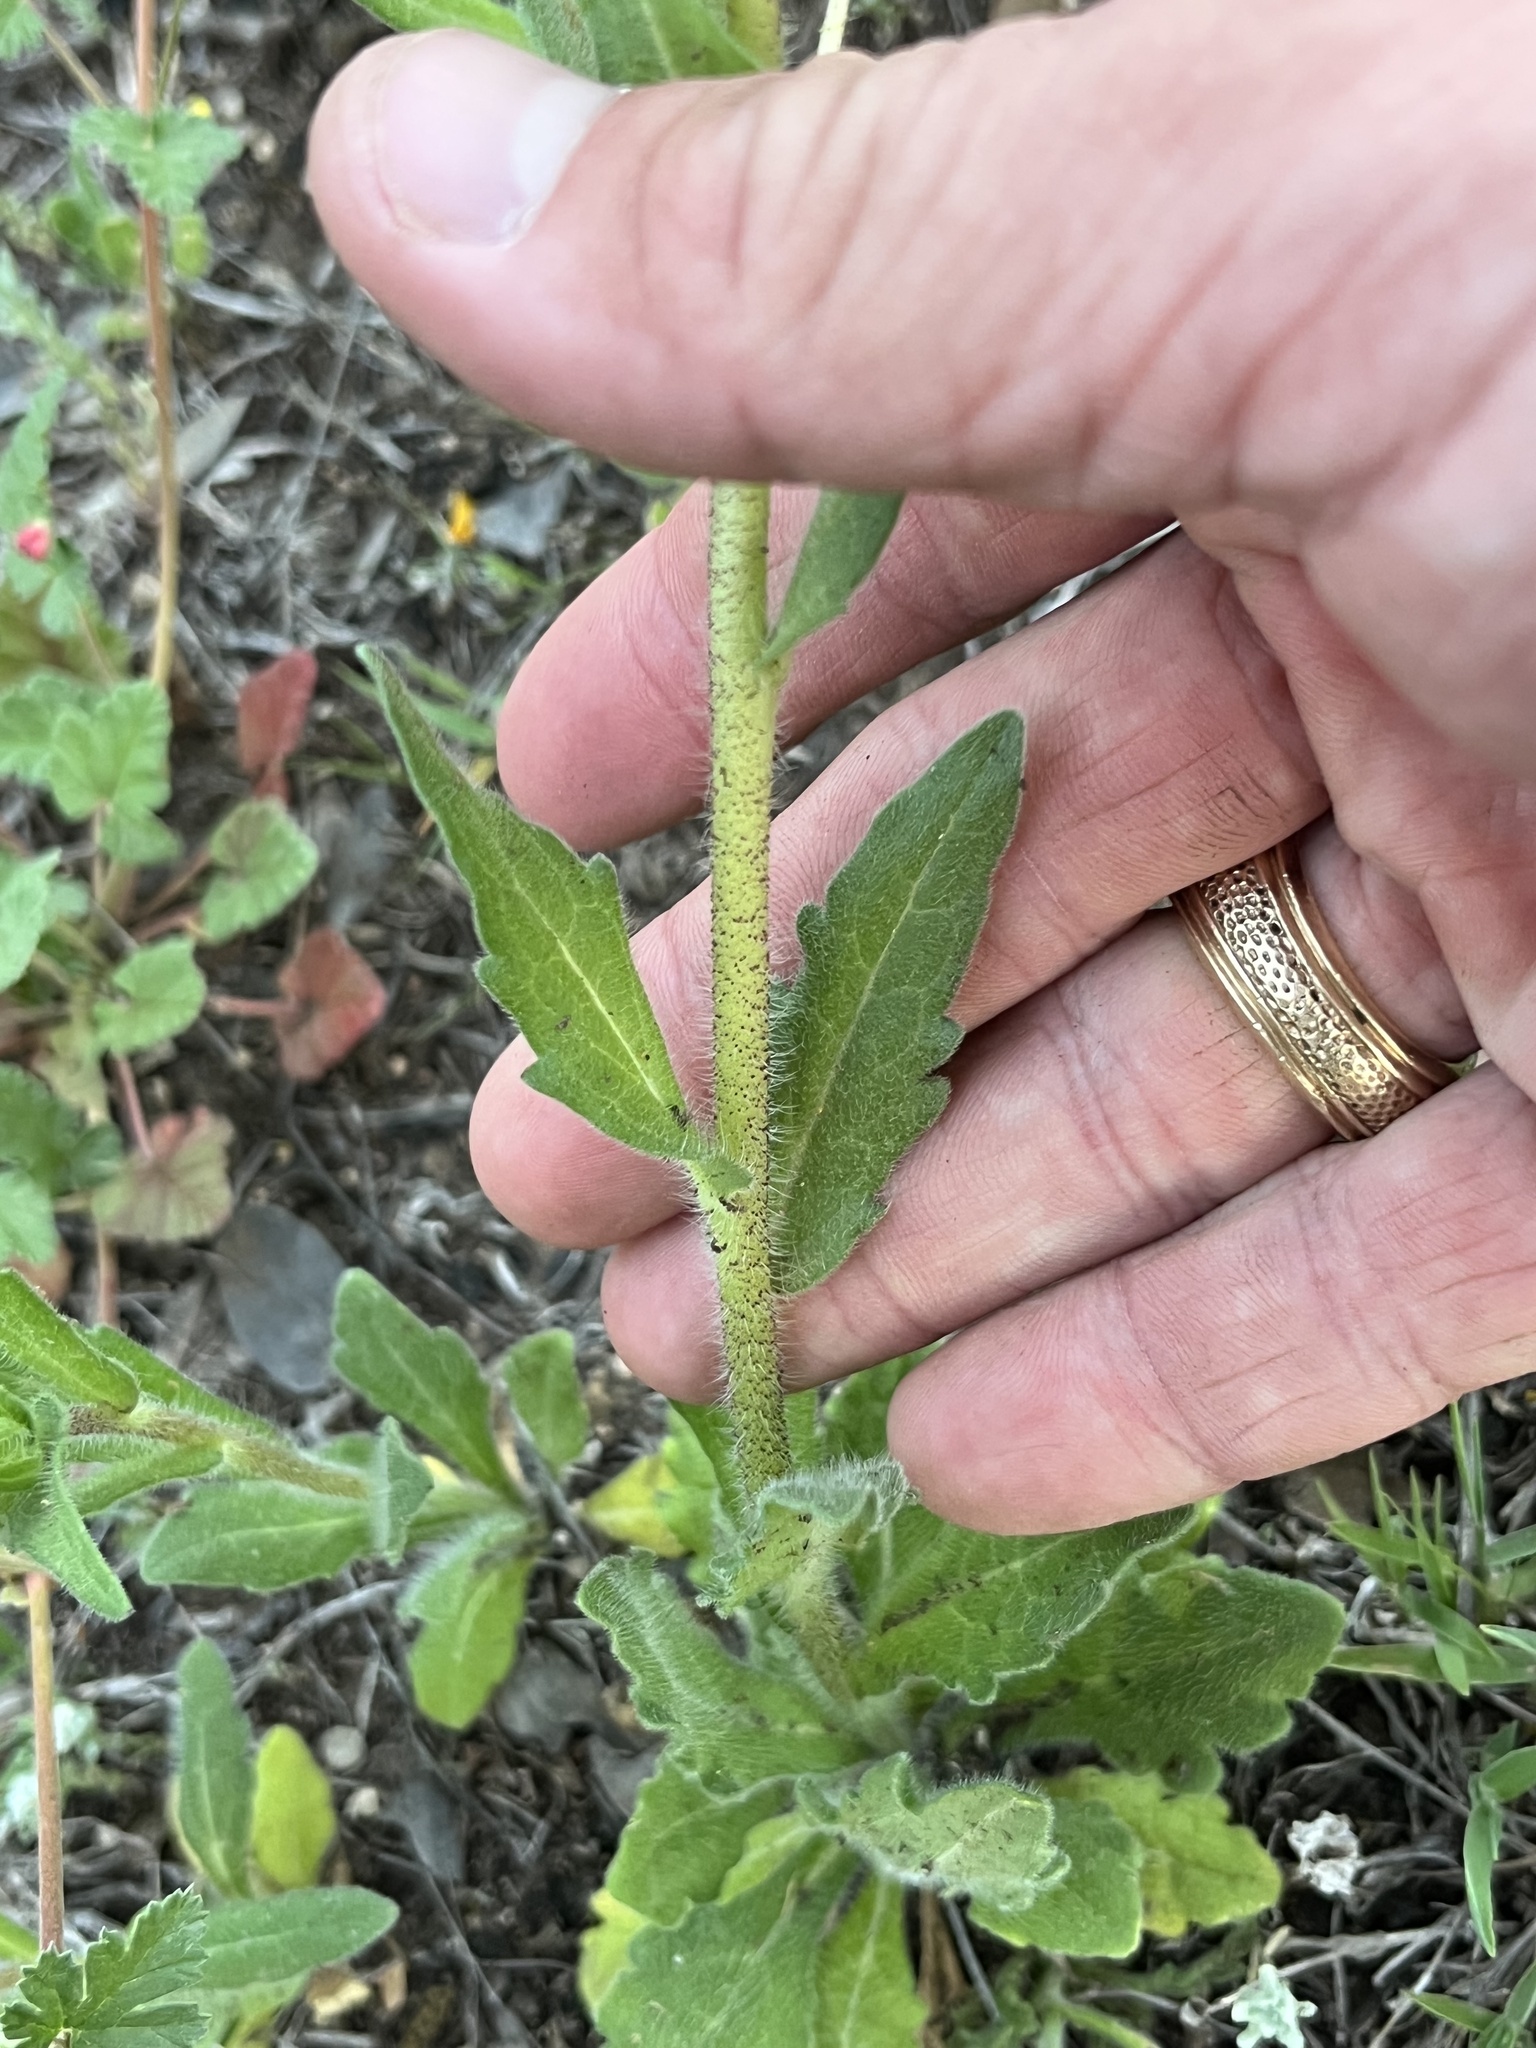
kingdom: Plantae
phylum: Tracheophyta
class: Magnoliopsida
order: Asterales
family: Asteraceae
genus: Lindheimera
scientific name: Lindheimera texana
